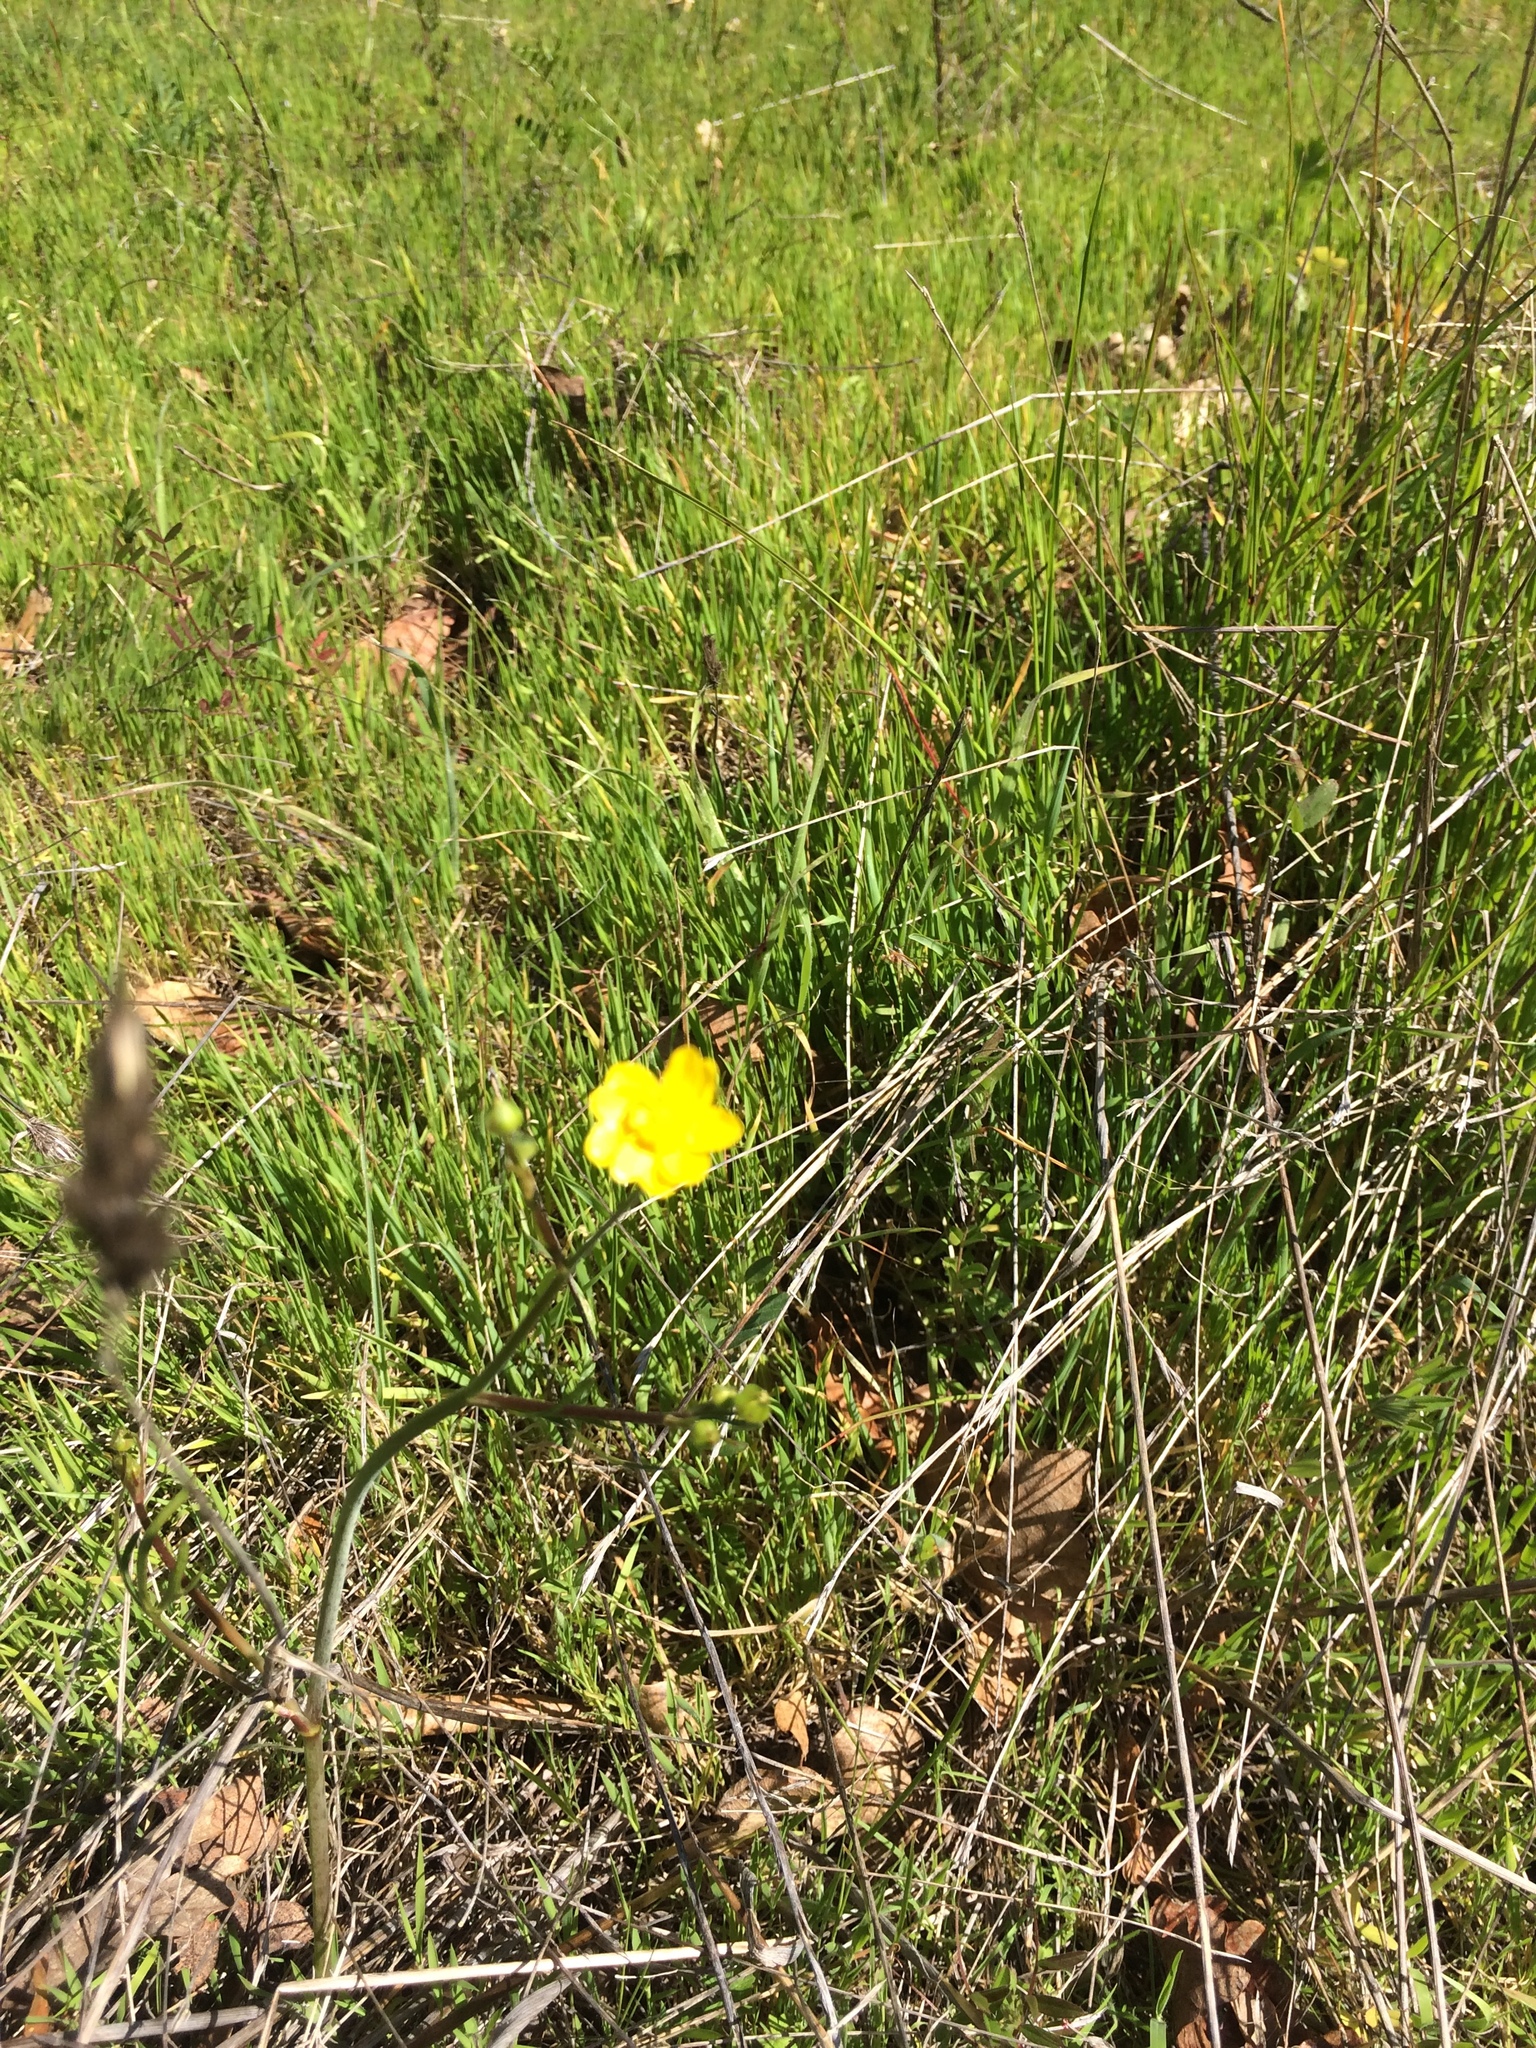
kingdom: Plantae
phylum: Tracheophyta
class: Magnoliopsida
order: Ranunculales
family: Ranunculaceae
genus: Ranunculus
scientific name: Ranunculus californicus
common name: California buttercup
